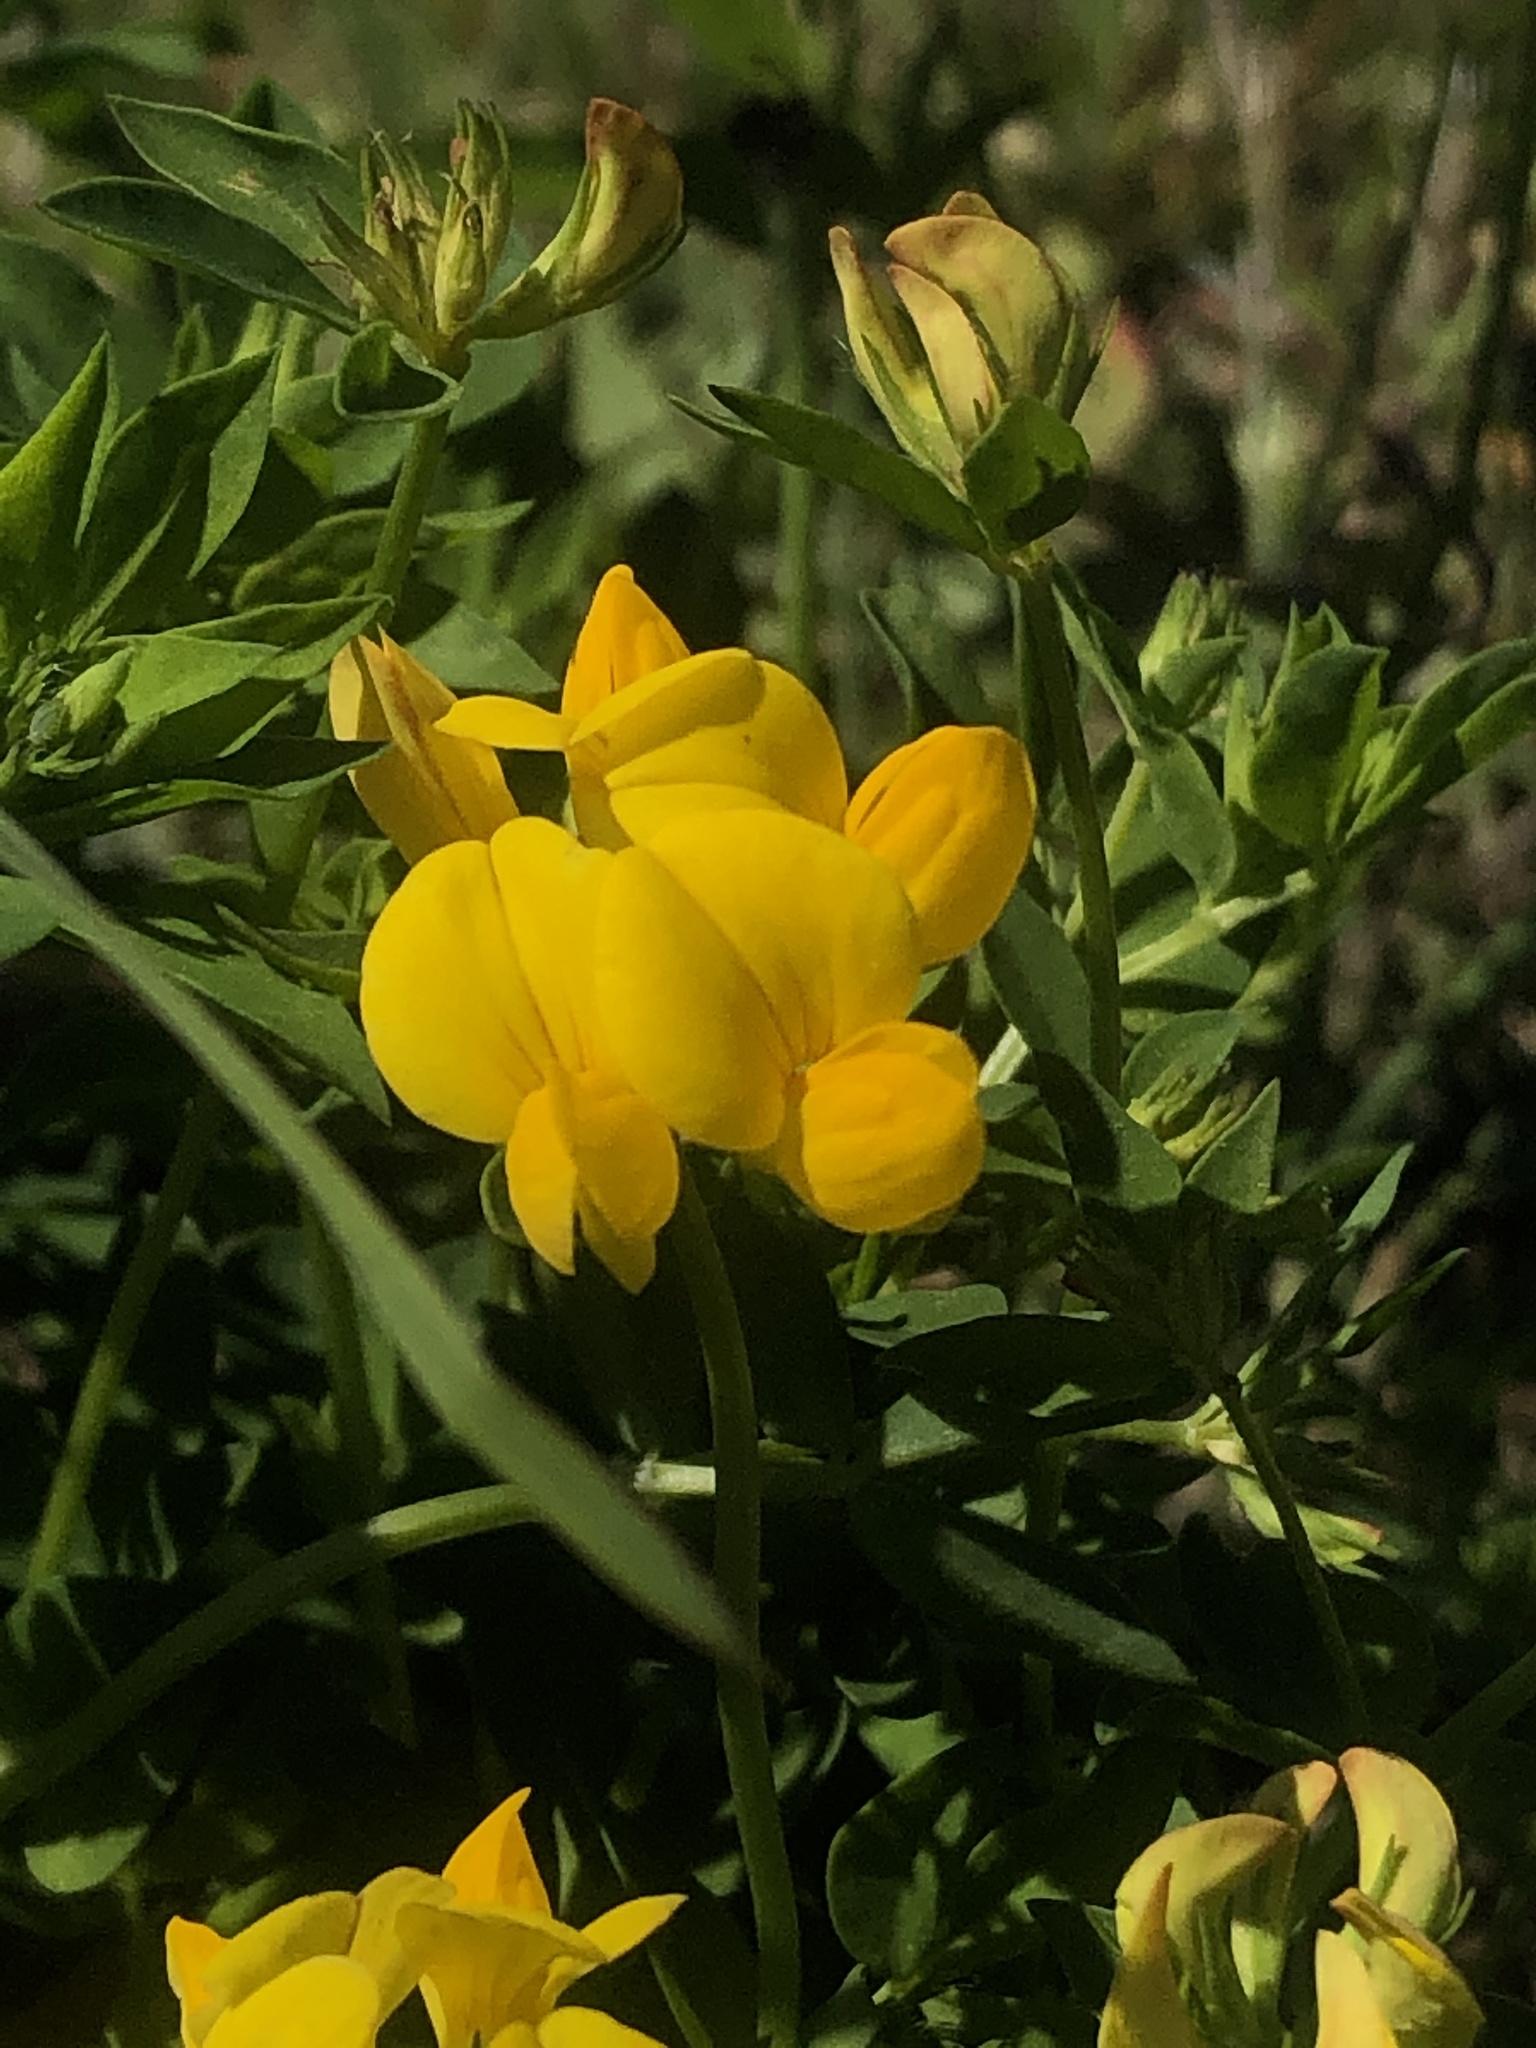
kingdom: Plantae
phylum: Tracheophyta
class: Magnoliopsida
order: Fabales
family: Fabaceae
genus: Lotus
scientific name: Lotus corniculatus
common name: Common bird's-foot-trefoil
